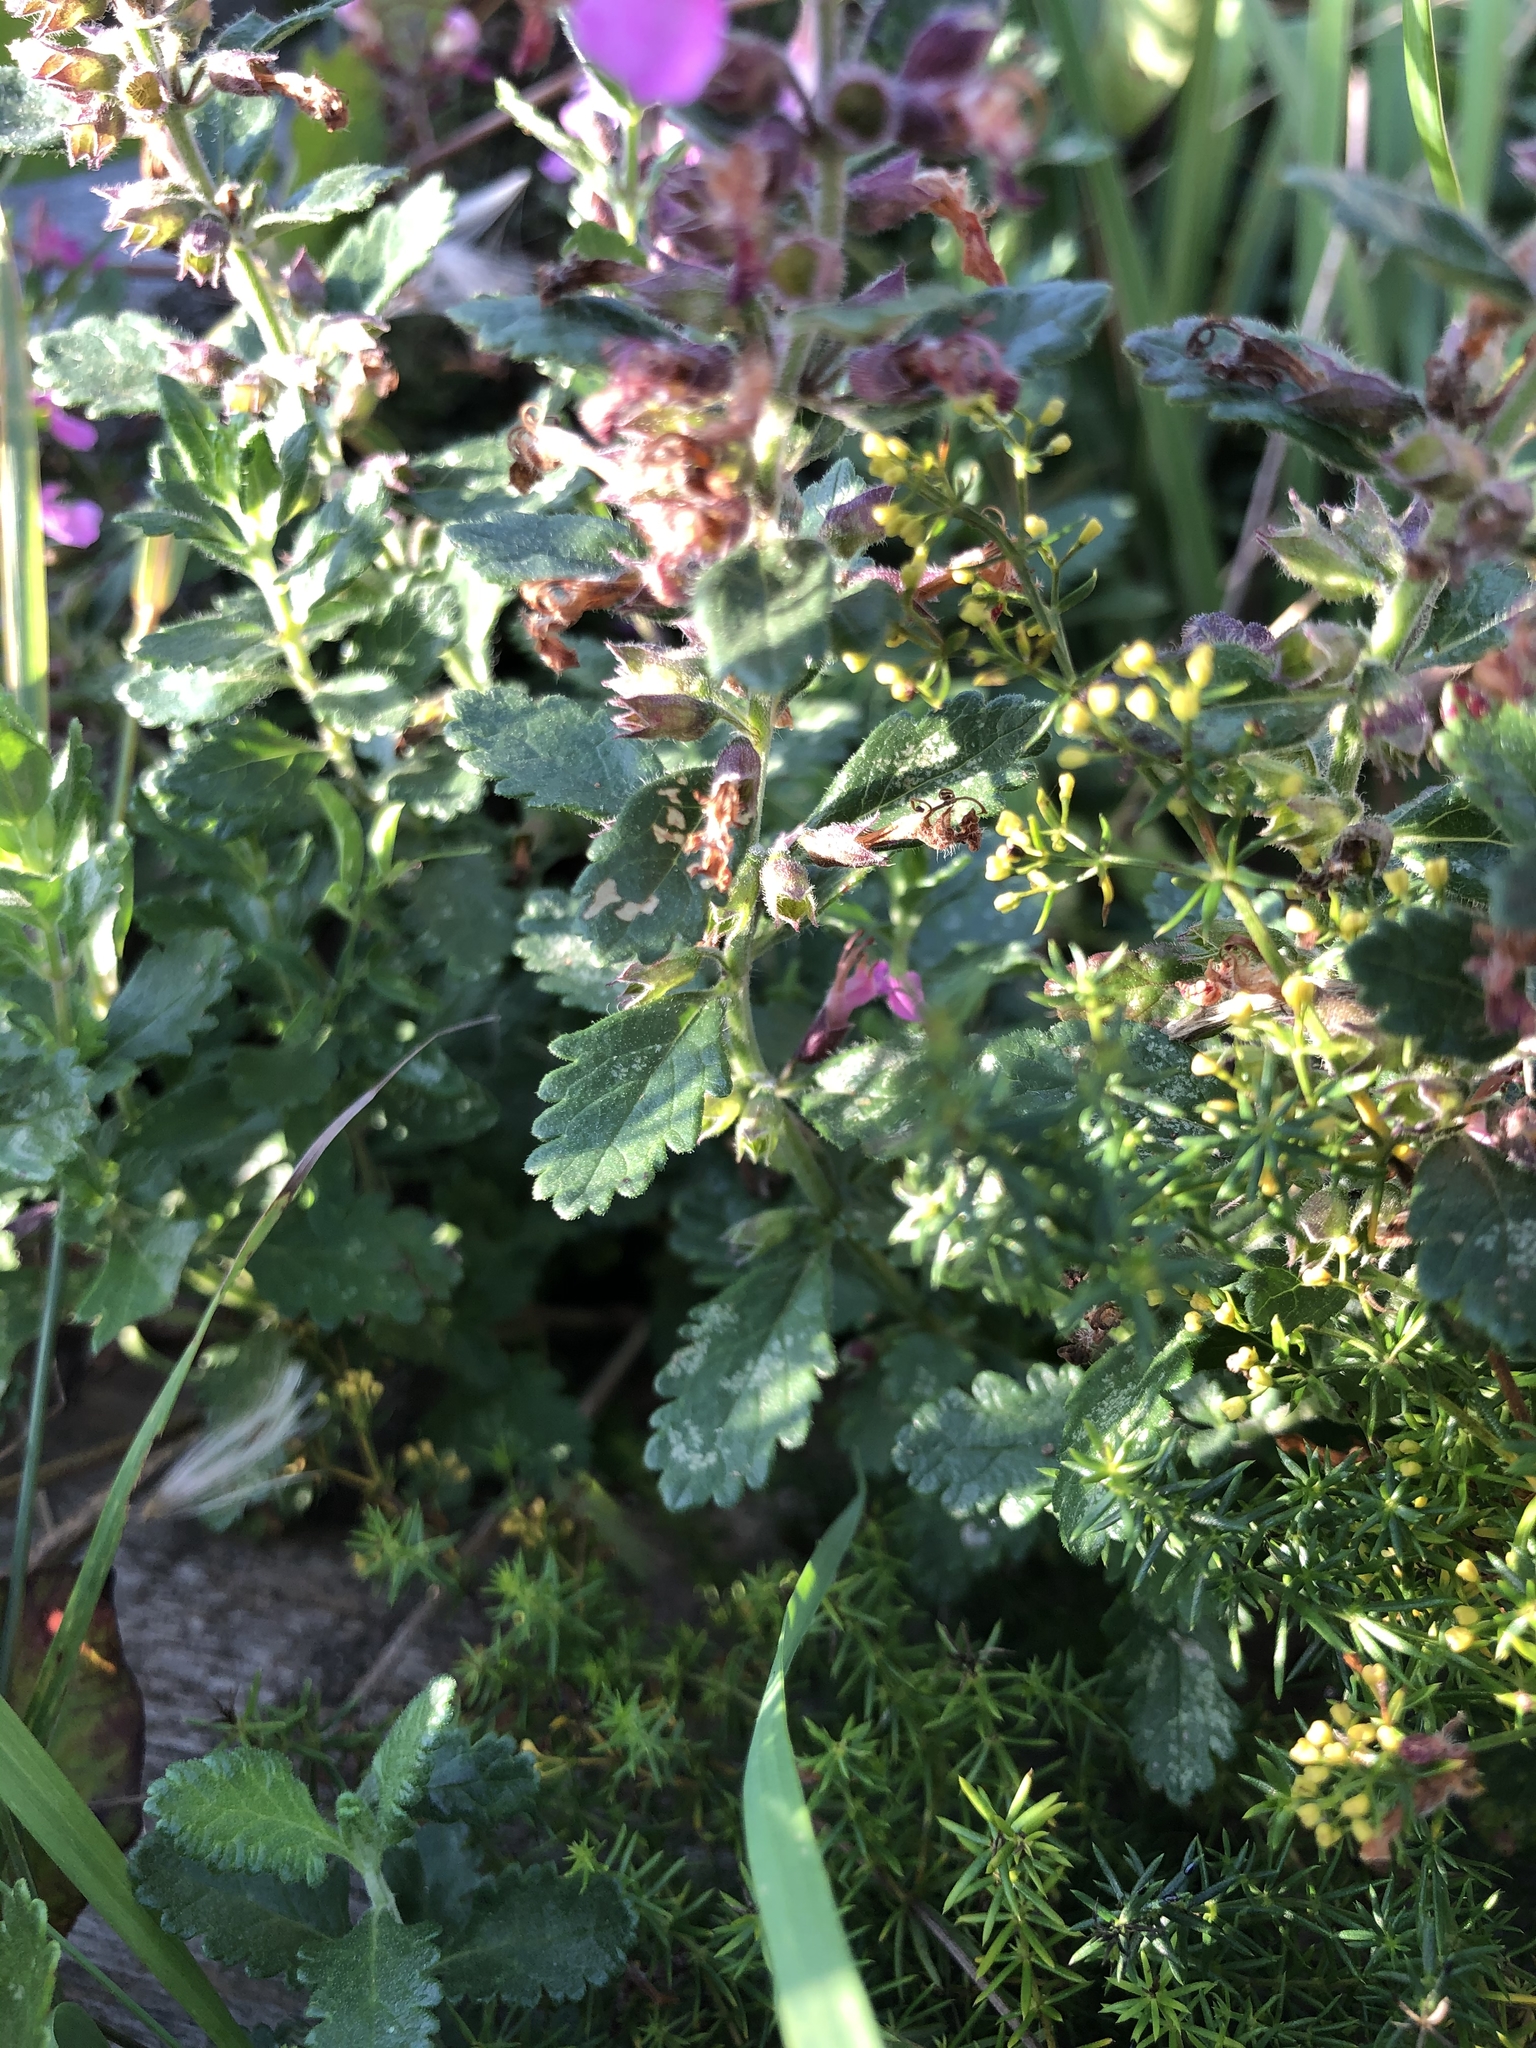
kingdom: Plantae
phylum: Tracheophyta
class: Magnoliopsida
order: Lamiales
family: Lamiaceae
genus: Teucrium
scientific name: Teucrium chamaedrys
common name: Wall germander
